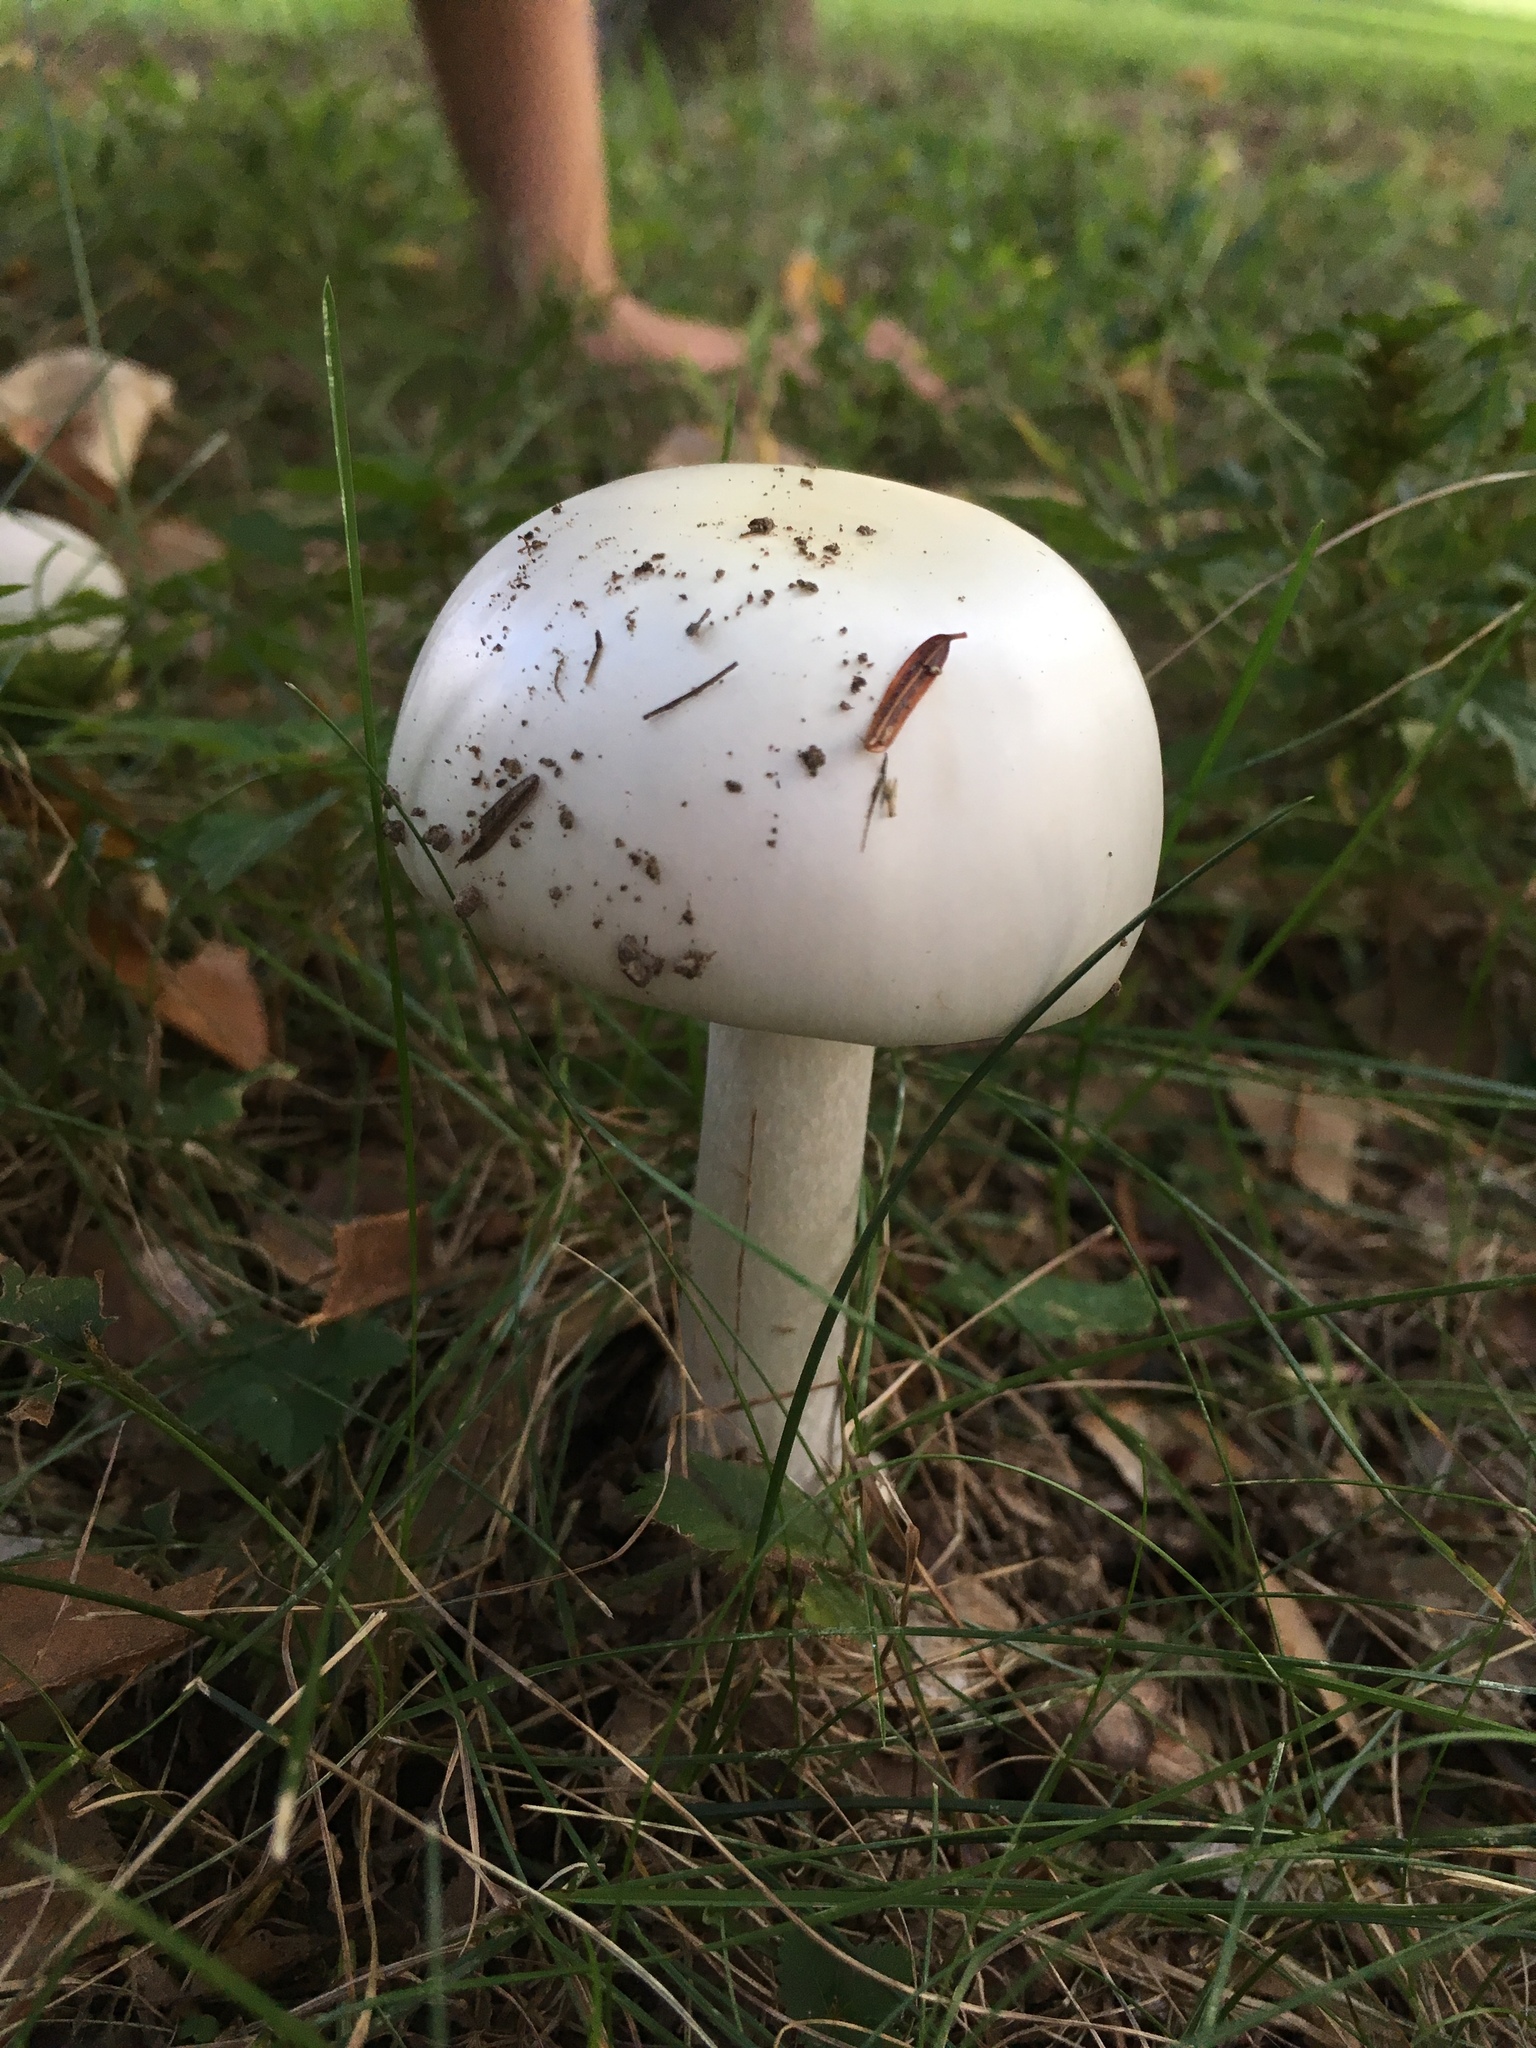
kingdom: Fungi
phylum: Basidiomycota
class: Agaricomycetes
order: Agaricales
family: Amanitaceae
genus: Amanita
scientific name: Amanita bisporigera
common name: Eastern north american destroying angel
